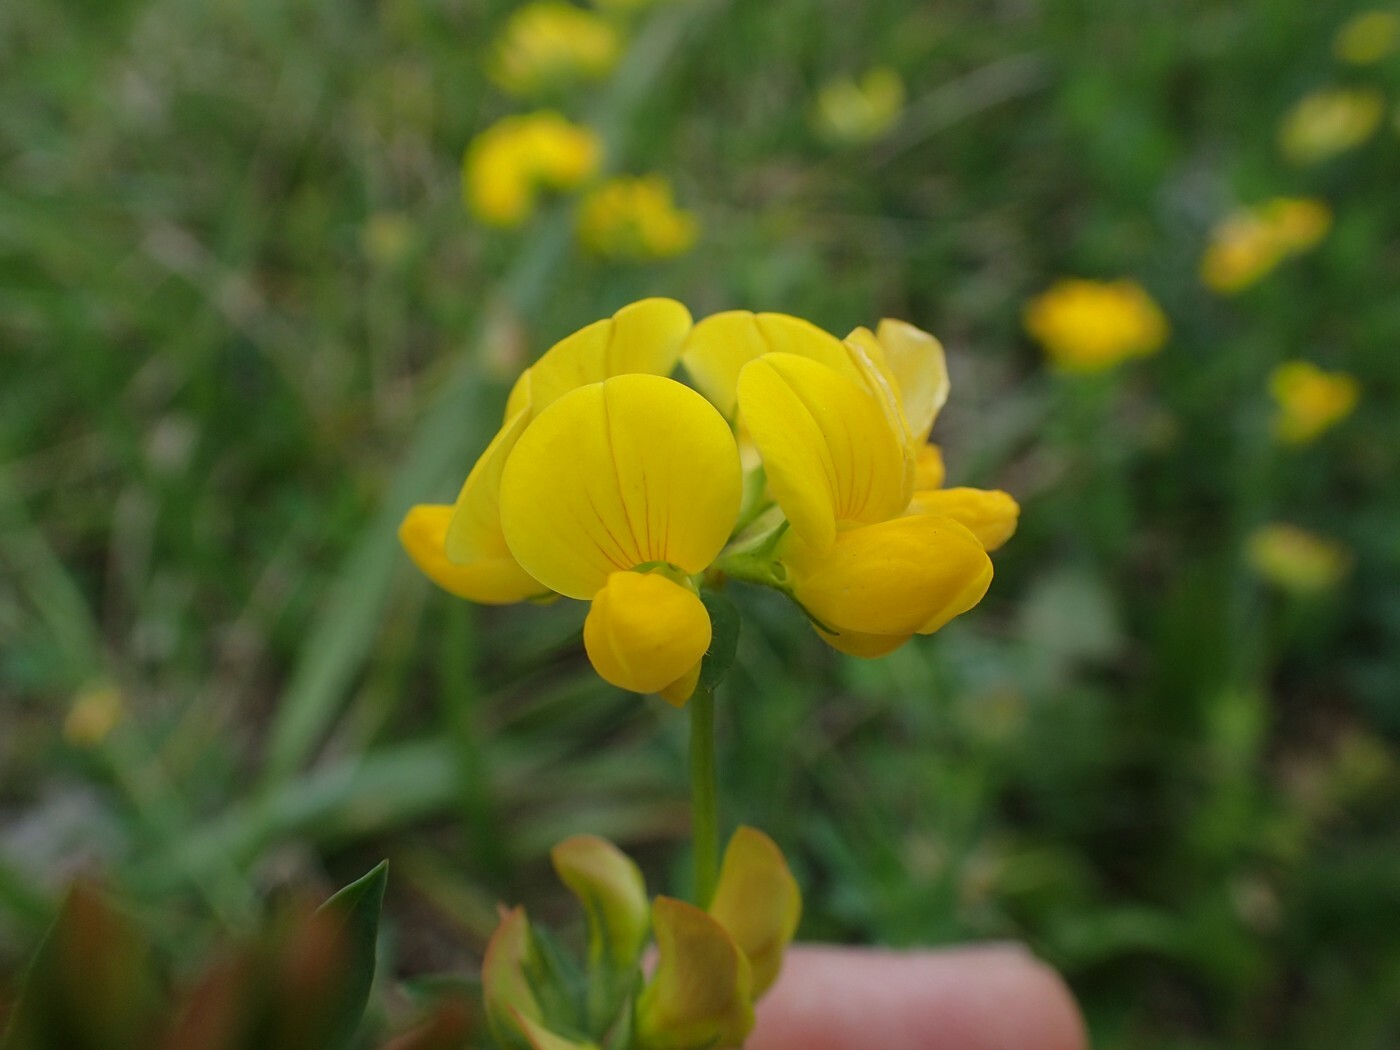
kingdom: Plantae
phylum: Tracheophyta
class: Magnoliopsida
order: Fabales
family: Fabaceae
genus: Lotus
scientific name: Lotus corniculatus
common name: Common bird's-foot-trefoil
